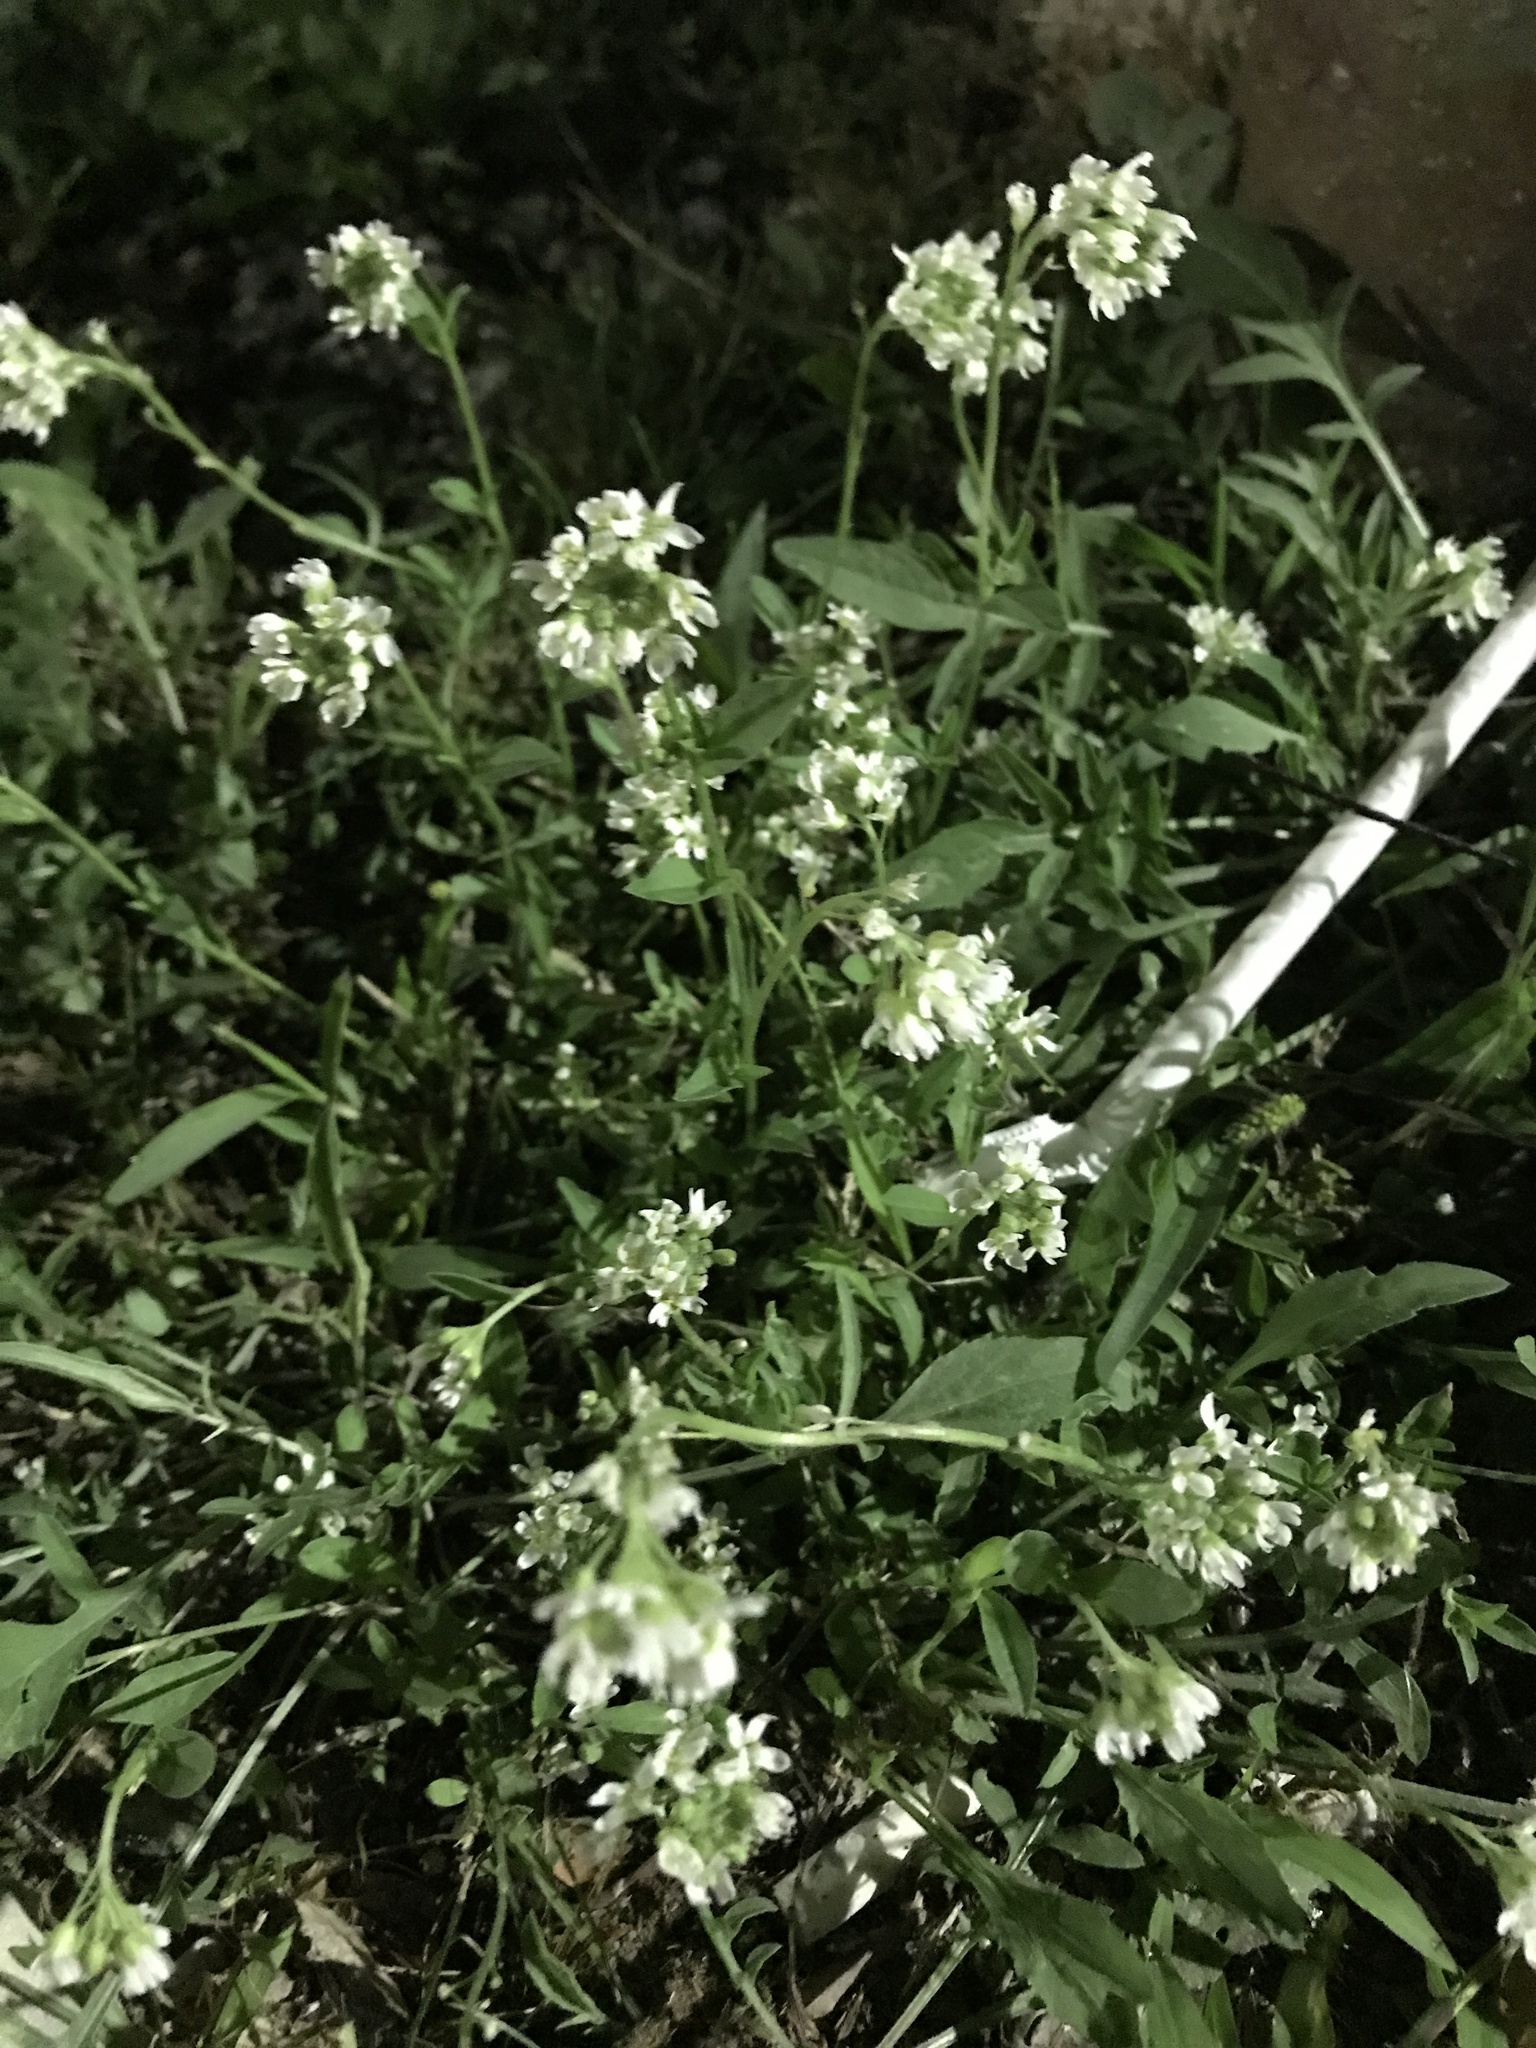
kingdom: Plantae
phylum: Tracheophyta
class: Magnoliopsida
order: Brassicales
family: Brassicaceae
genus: Berteroa
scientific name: Berteroa incana
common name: Hoary alison
